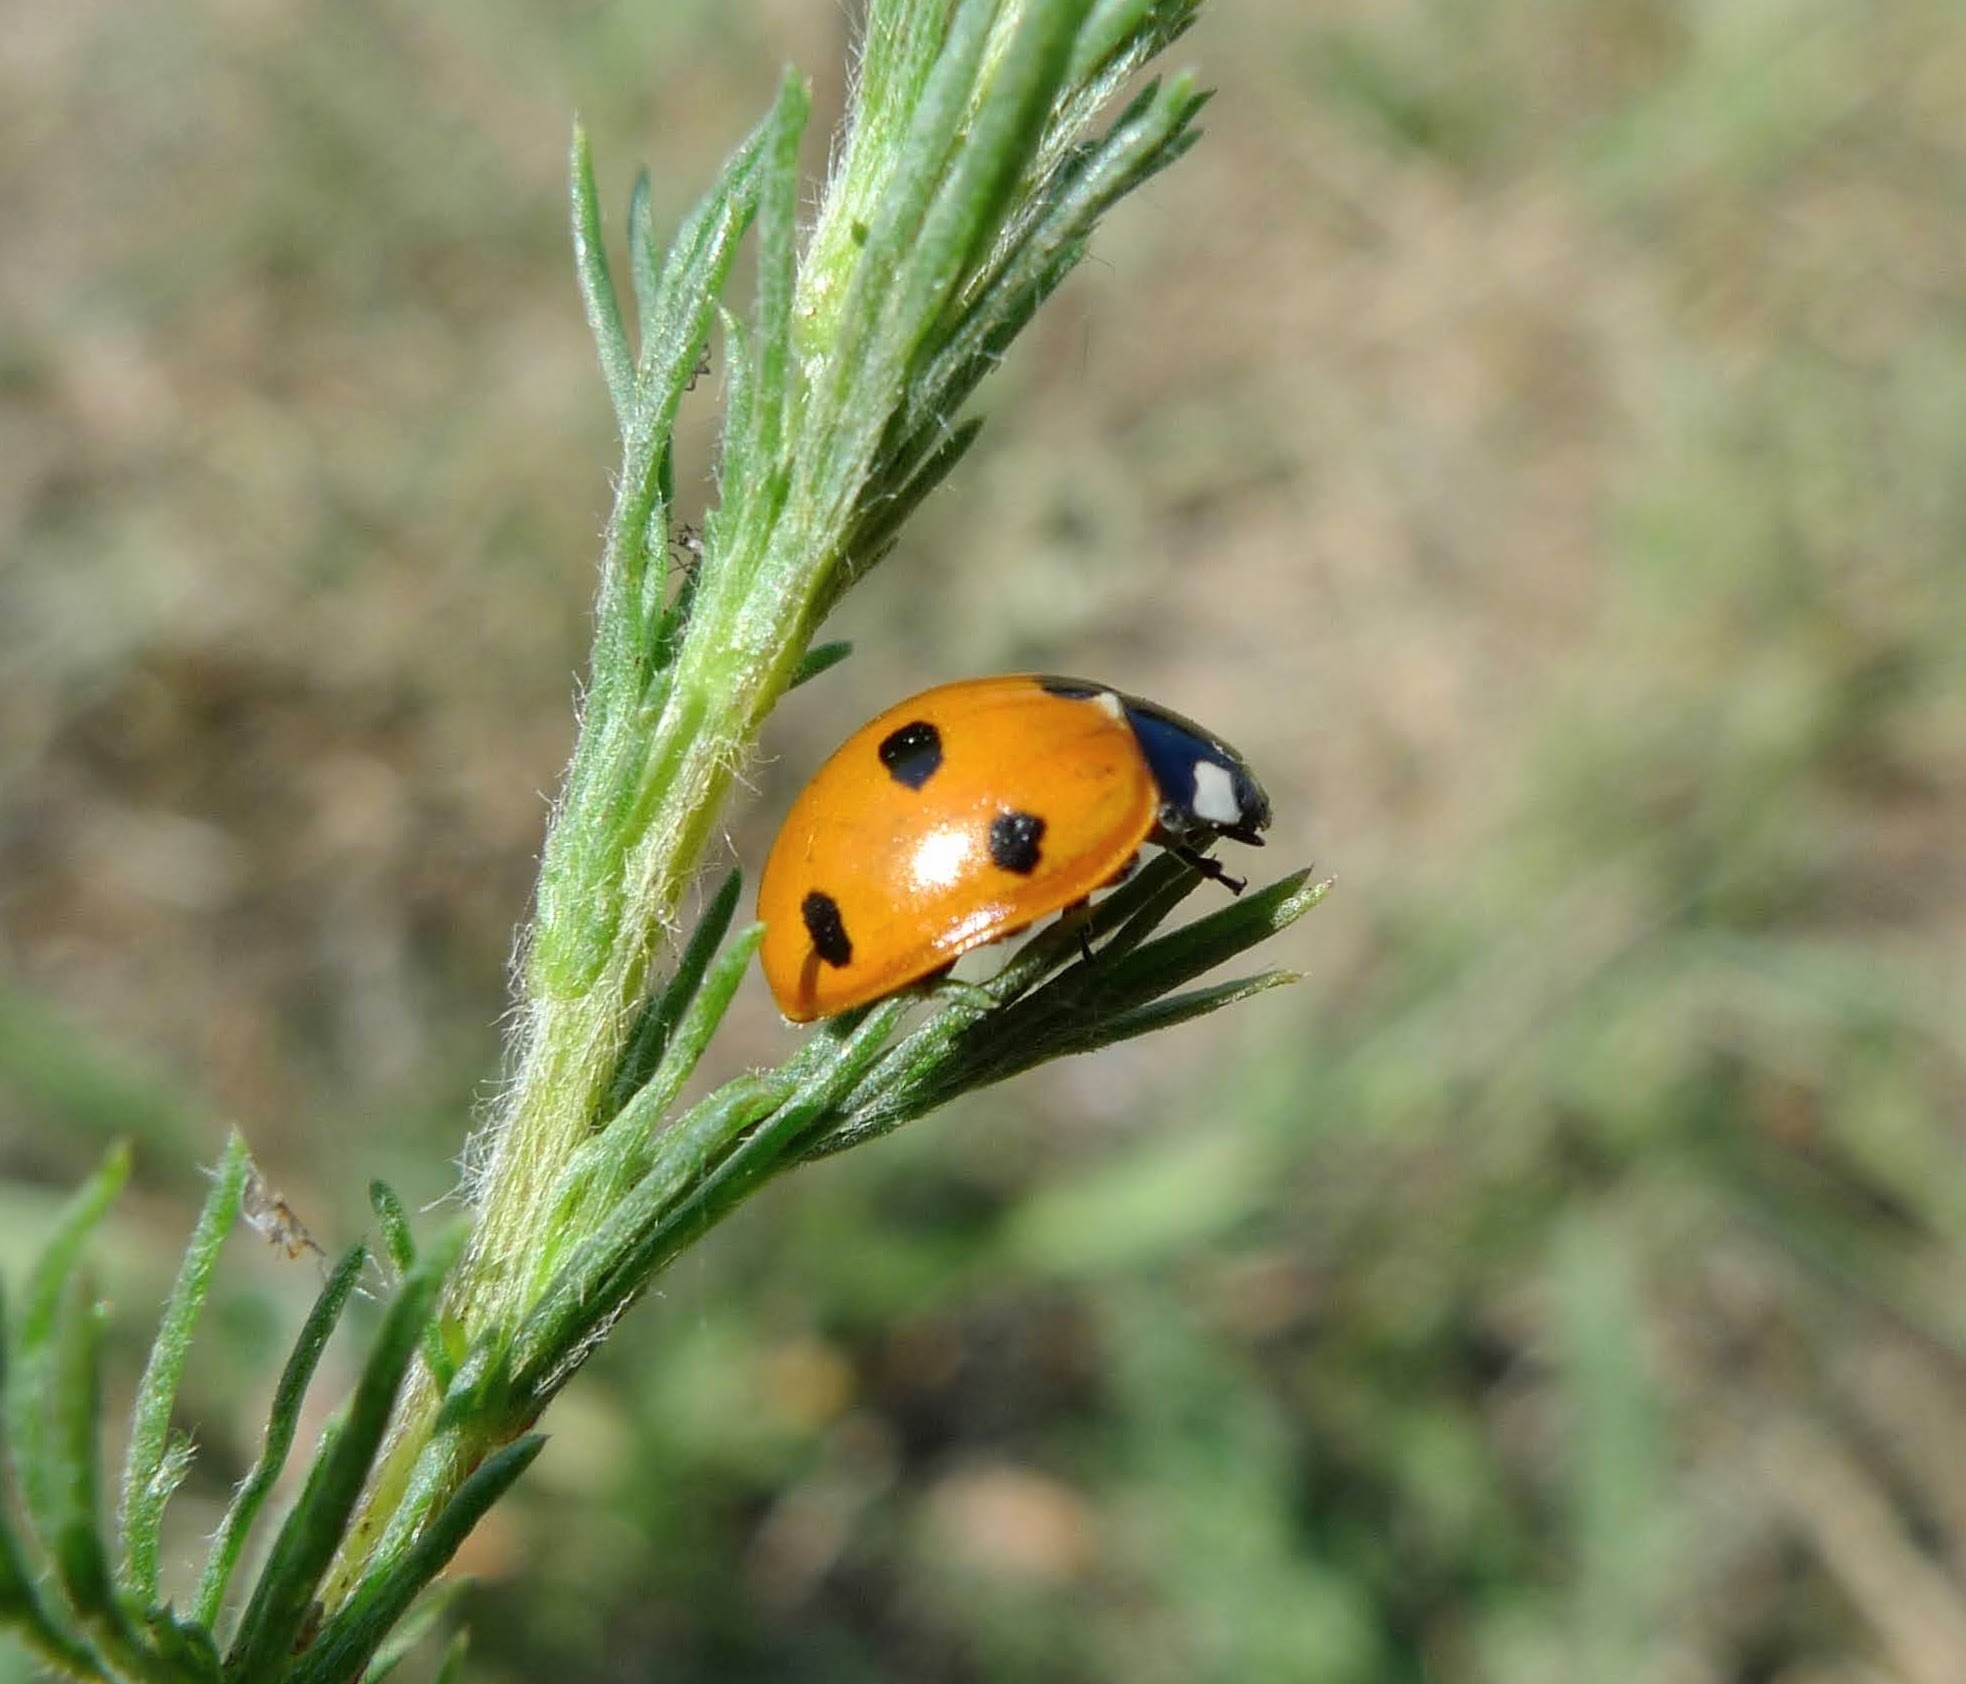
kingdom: Animalia
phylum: Arthropoda
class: Insecta
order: Coleoptera
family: Coccinellidae
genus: Coccinella
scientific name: Coccinella septempunctata
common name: Sevenspotted lady beetle
